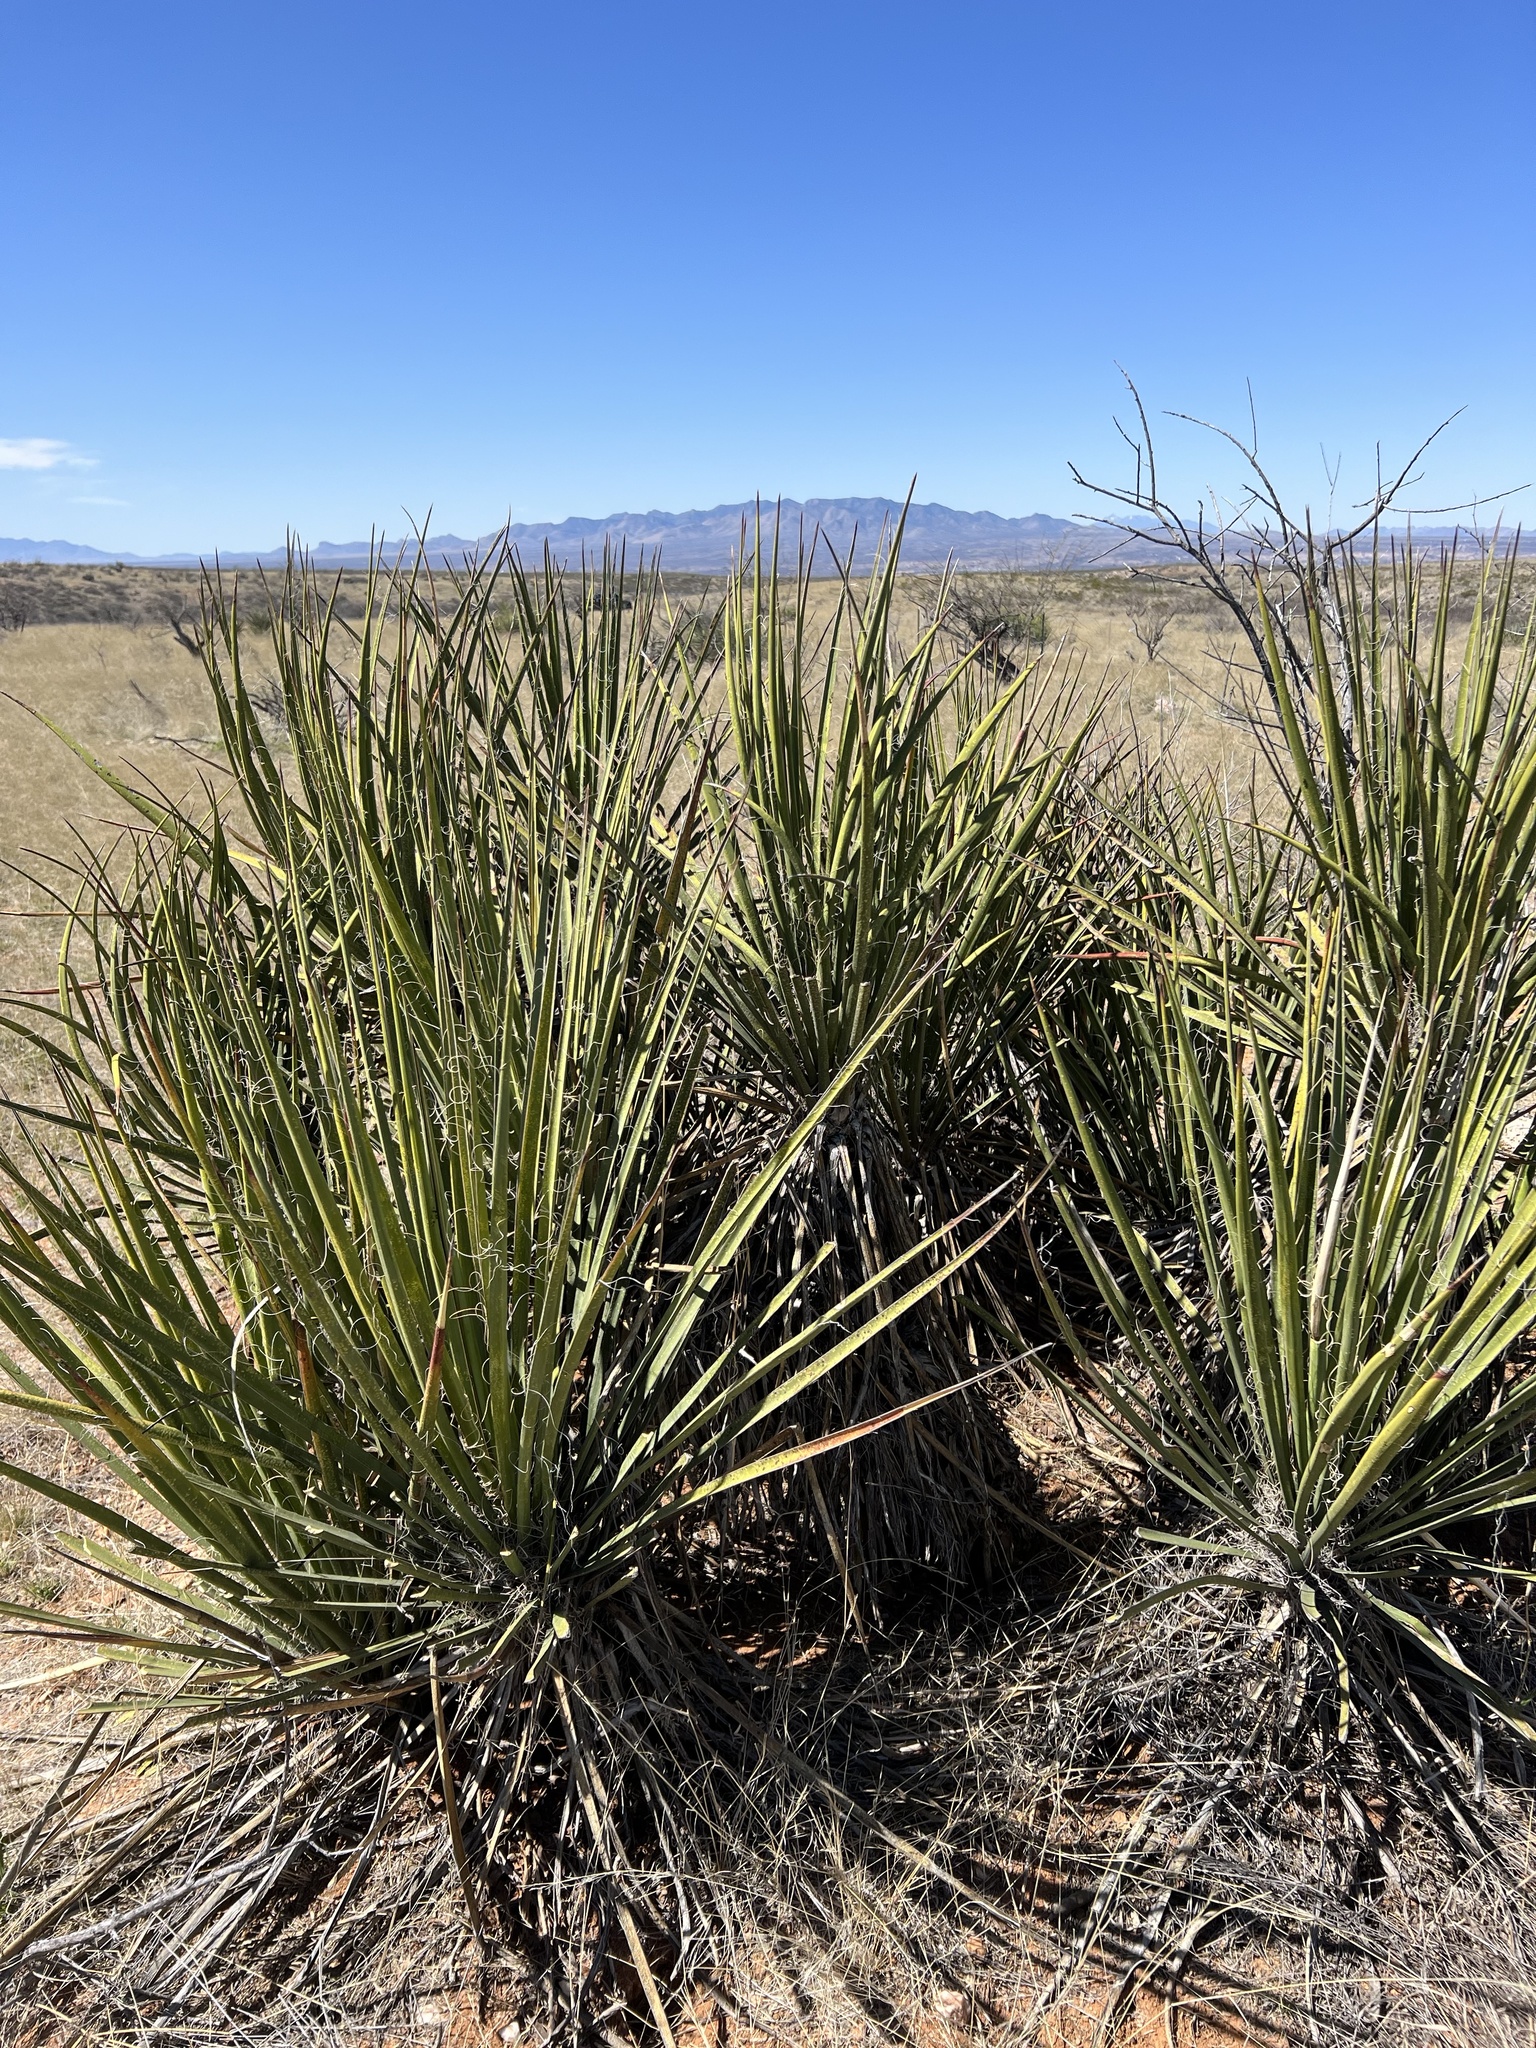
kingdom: Plantae
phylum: Tracheophyta
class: Liliopsida
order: Asparagales
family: Asparagaceae
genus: Yucca
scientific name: Yucca baccata
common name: Banana yucca
